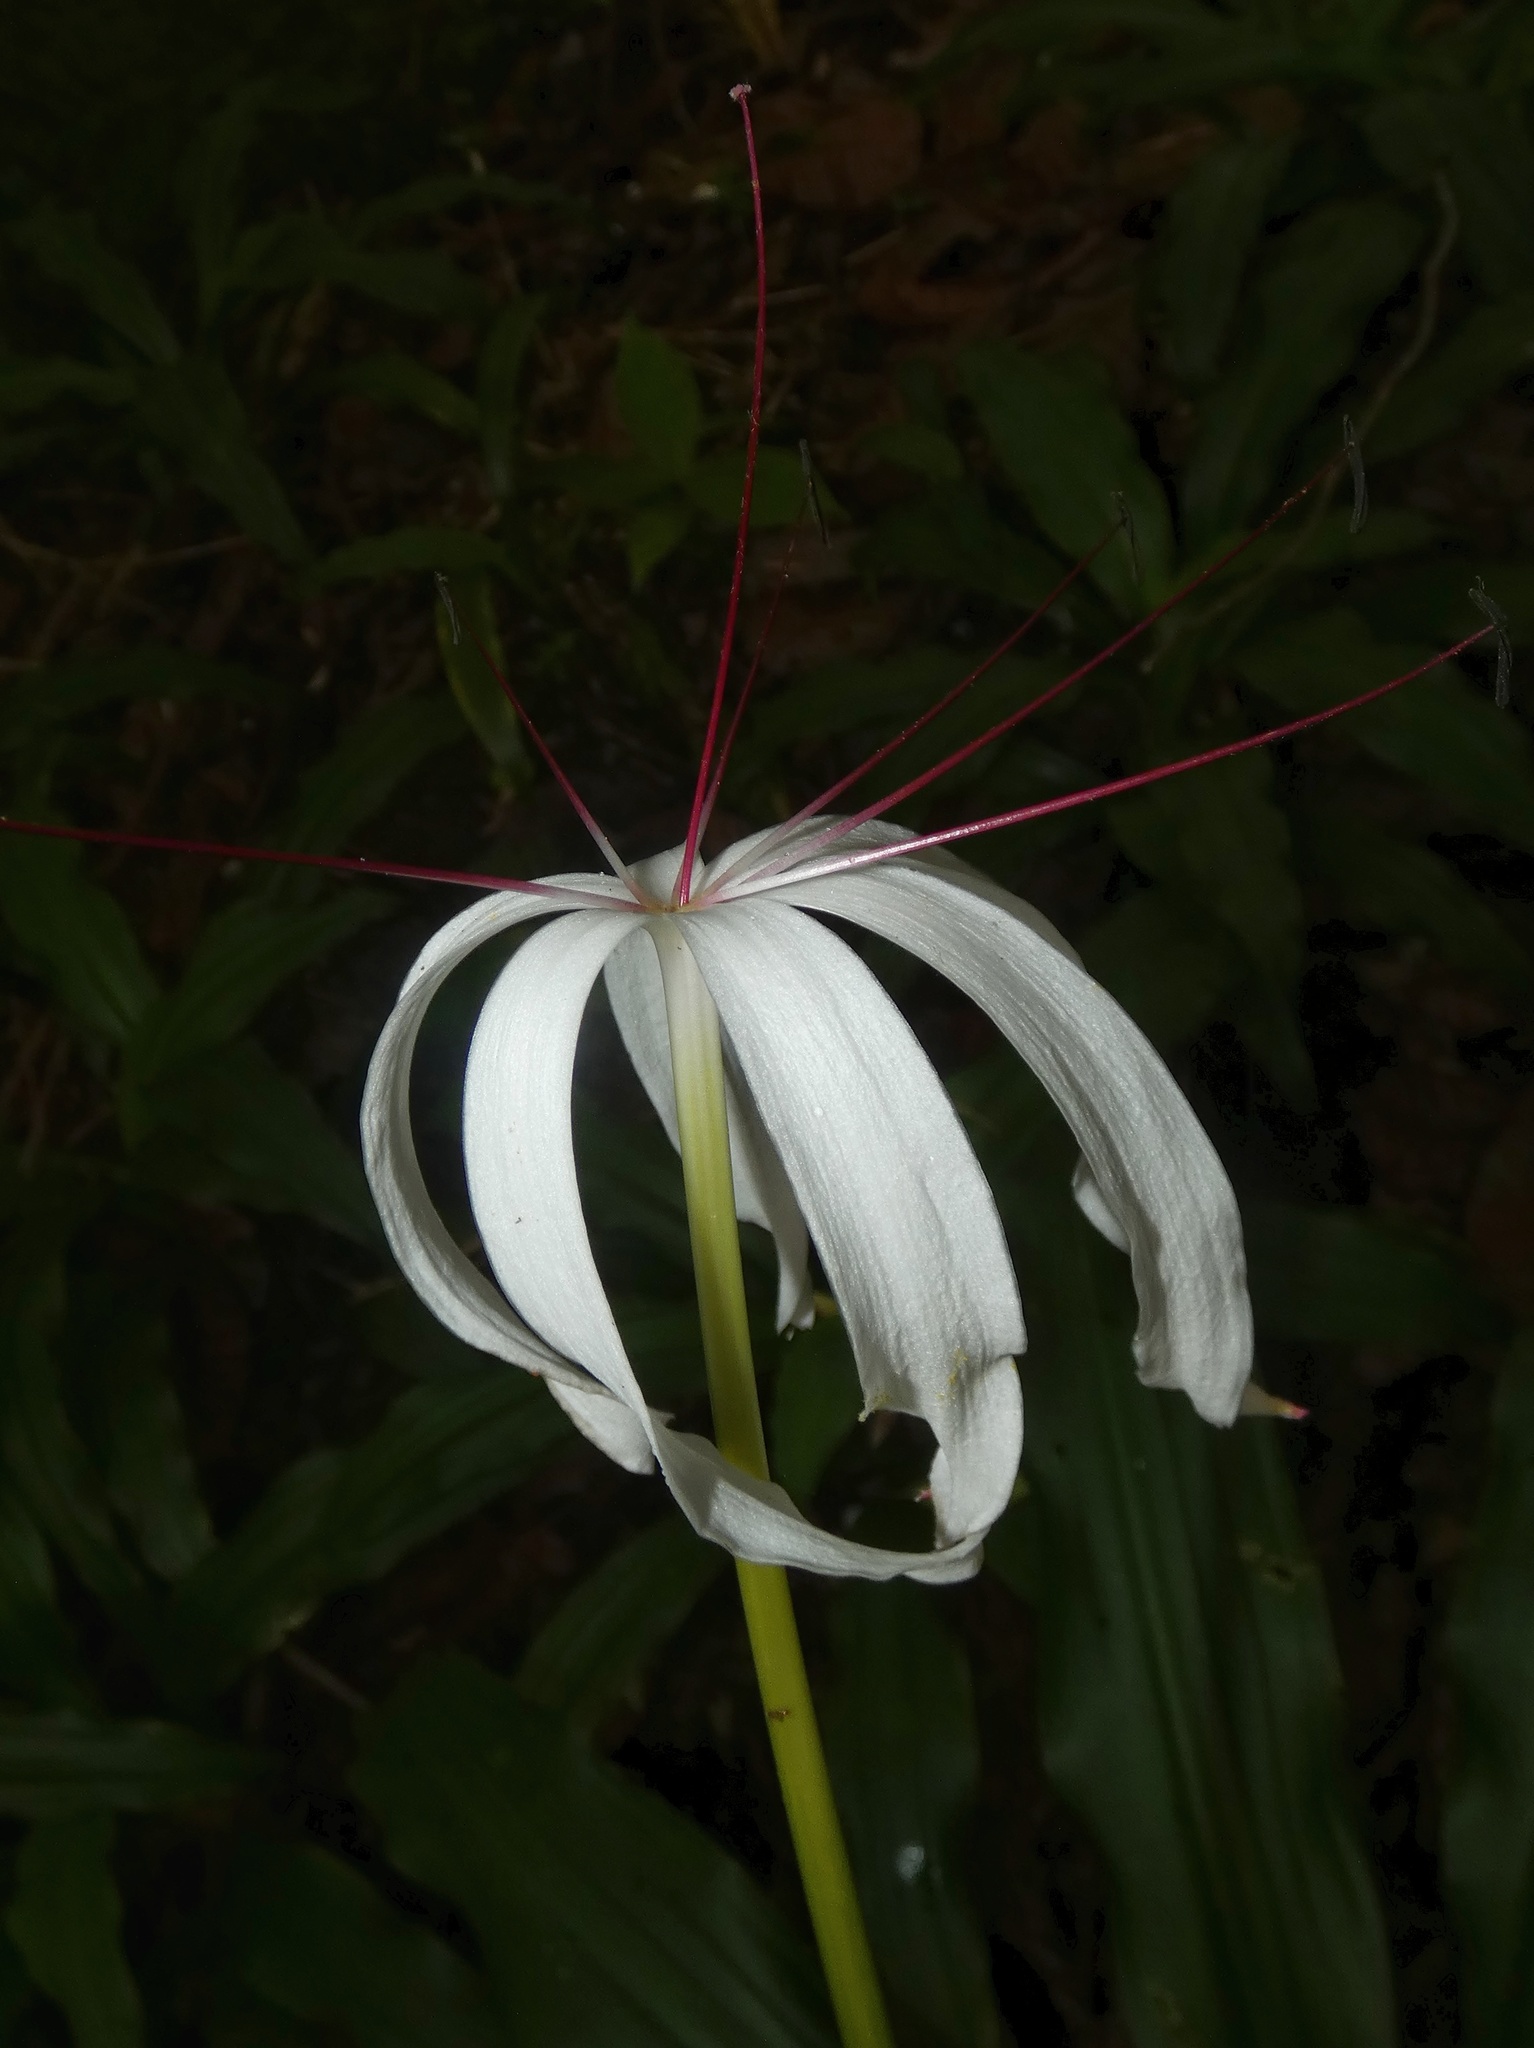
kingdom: Plantae
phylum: Tracheophyta
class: Liliopsida
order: Asparagales
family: Amaryllidaceae
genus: Crinum
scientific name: Crinum erubescens
